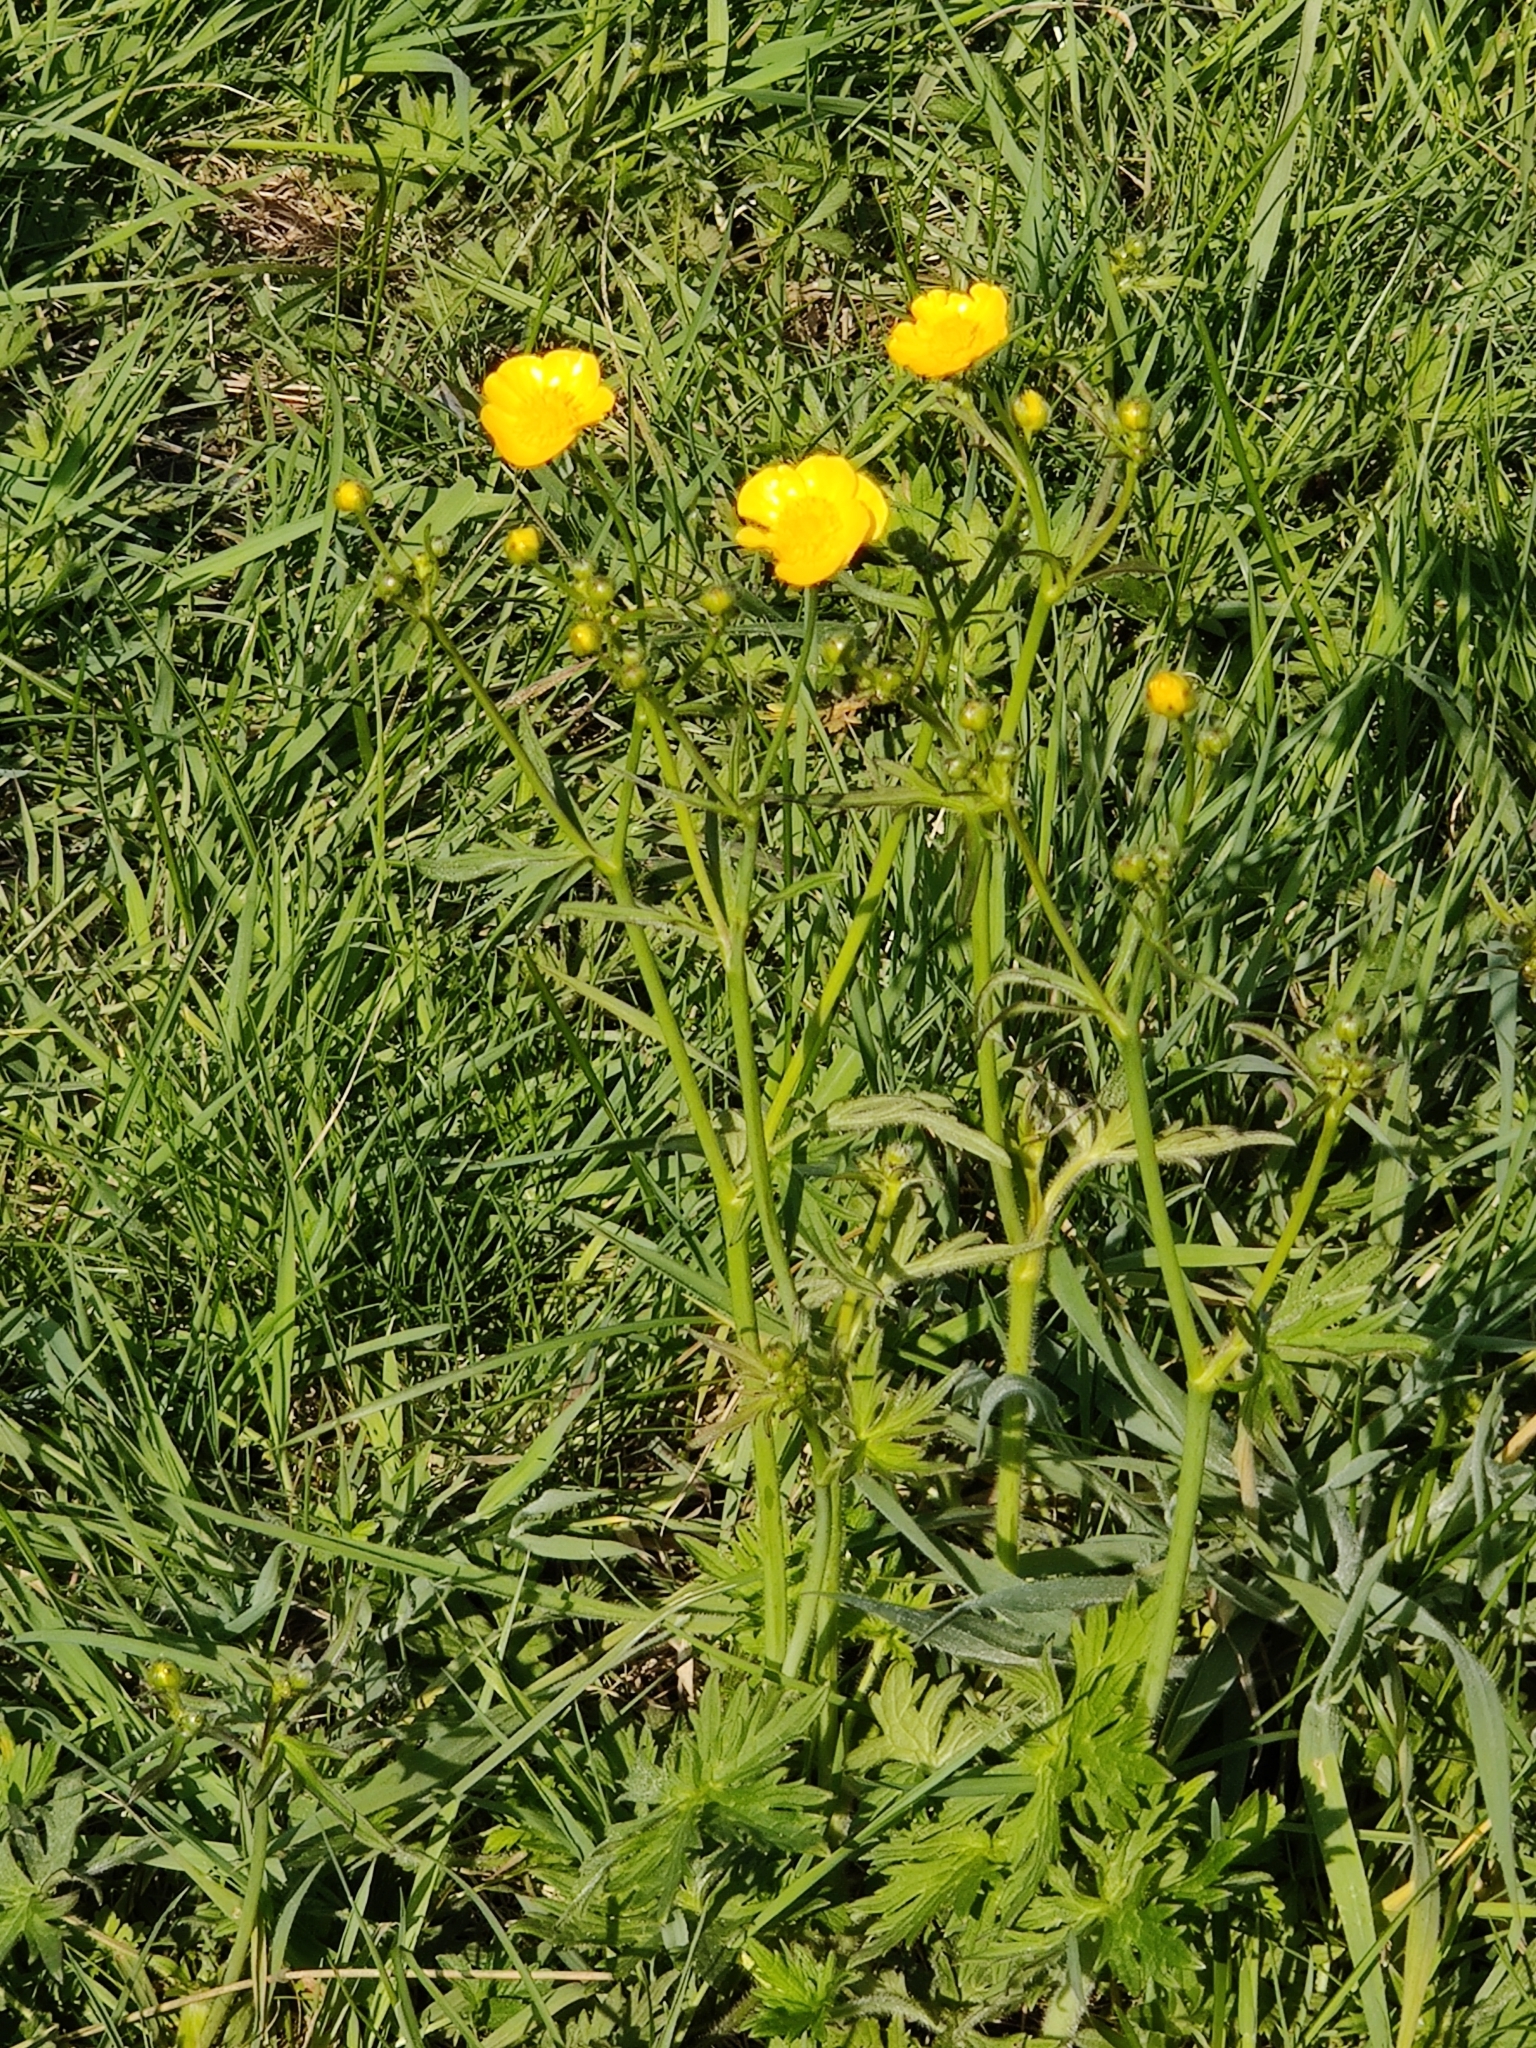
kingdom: Plantae
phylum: Tracheophyta
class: Magnoliopsida
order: Ranunculales
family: Ranunculaceae
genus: Ranunculus
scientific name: Ranunculus acris
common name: Meadow buttercup
